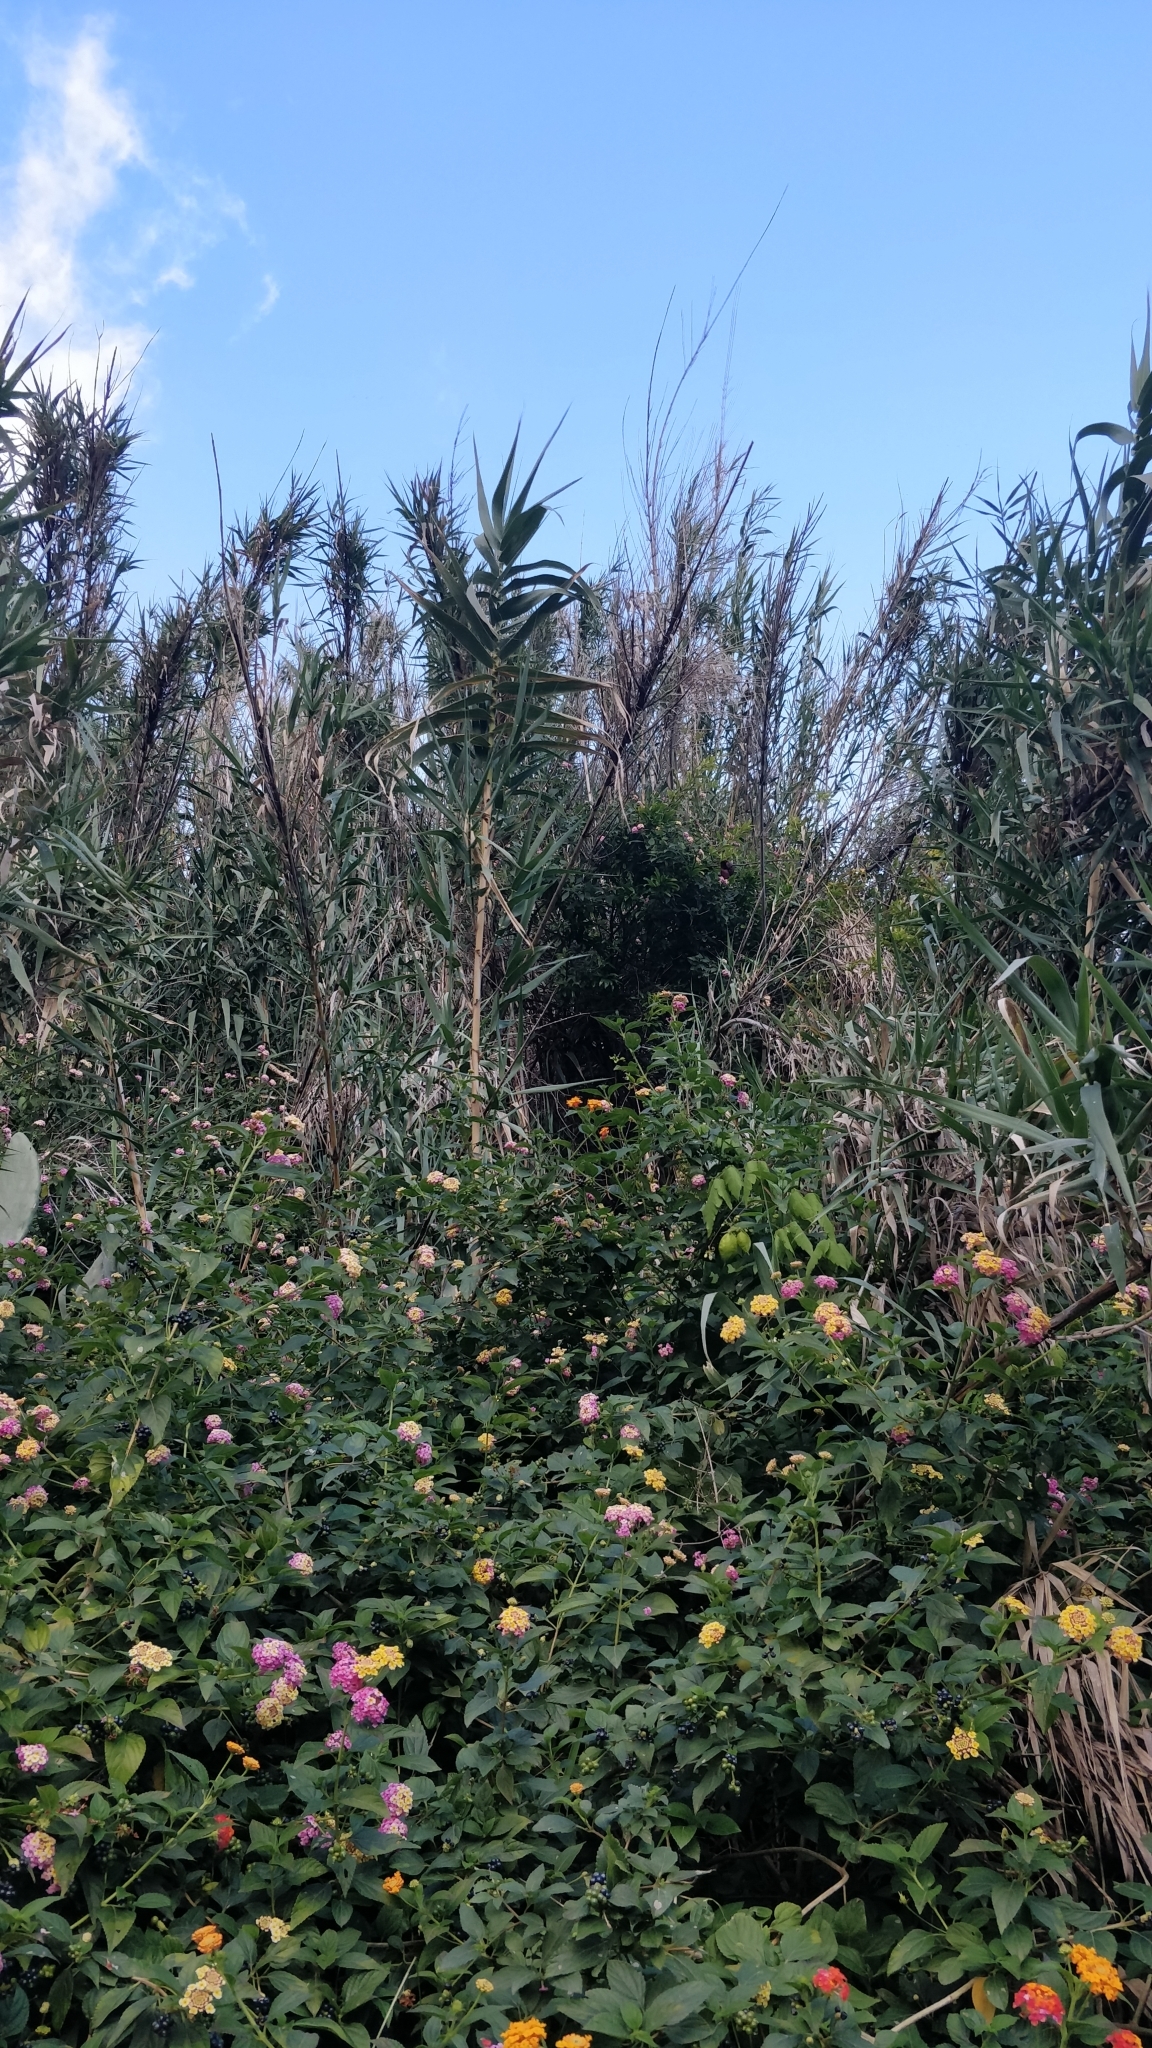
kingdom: Plantae
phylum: Tracheophyta
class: Magnoliopsida
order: Lamiales
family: Verbenaceae
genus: Lantana
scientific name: Lantana camara
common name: Lantana
